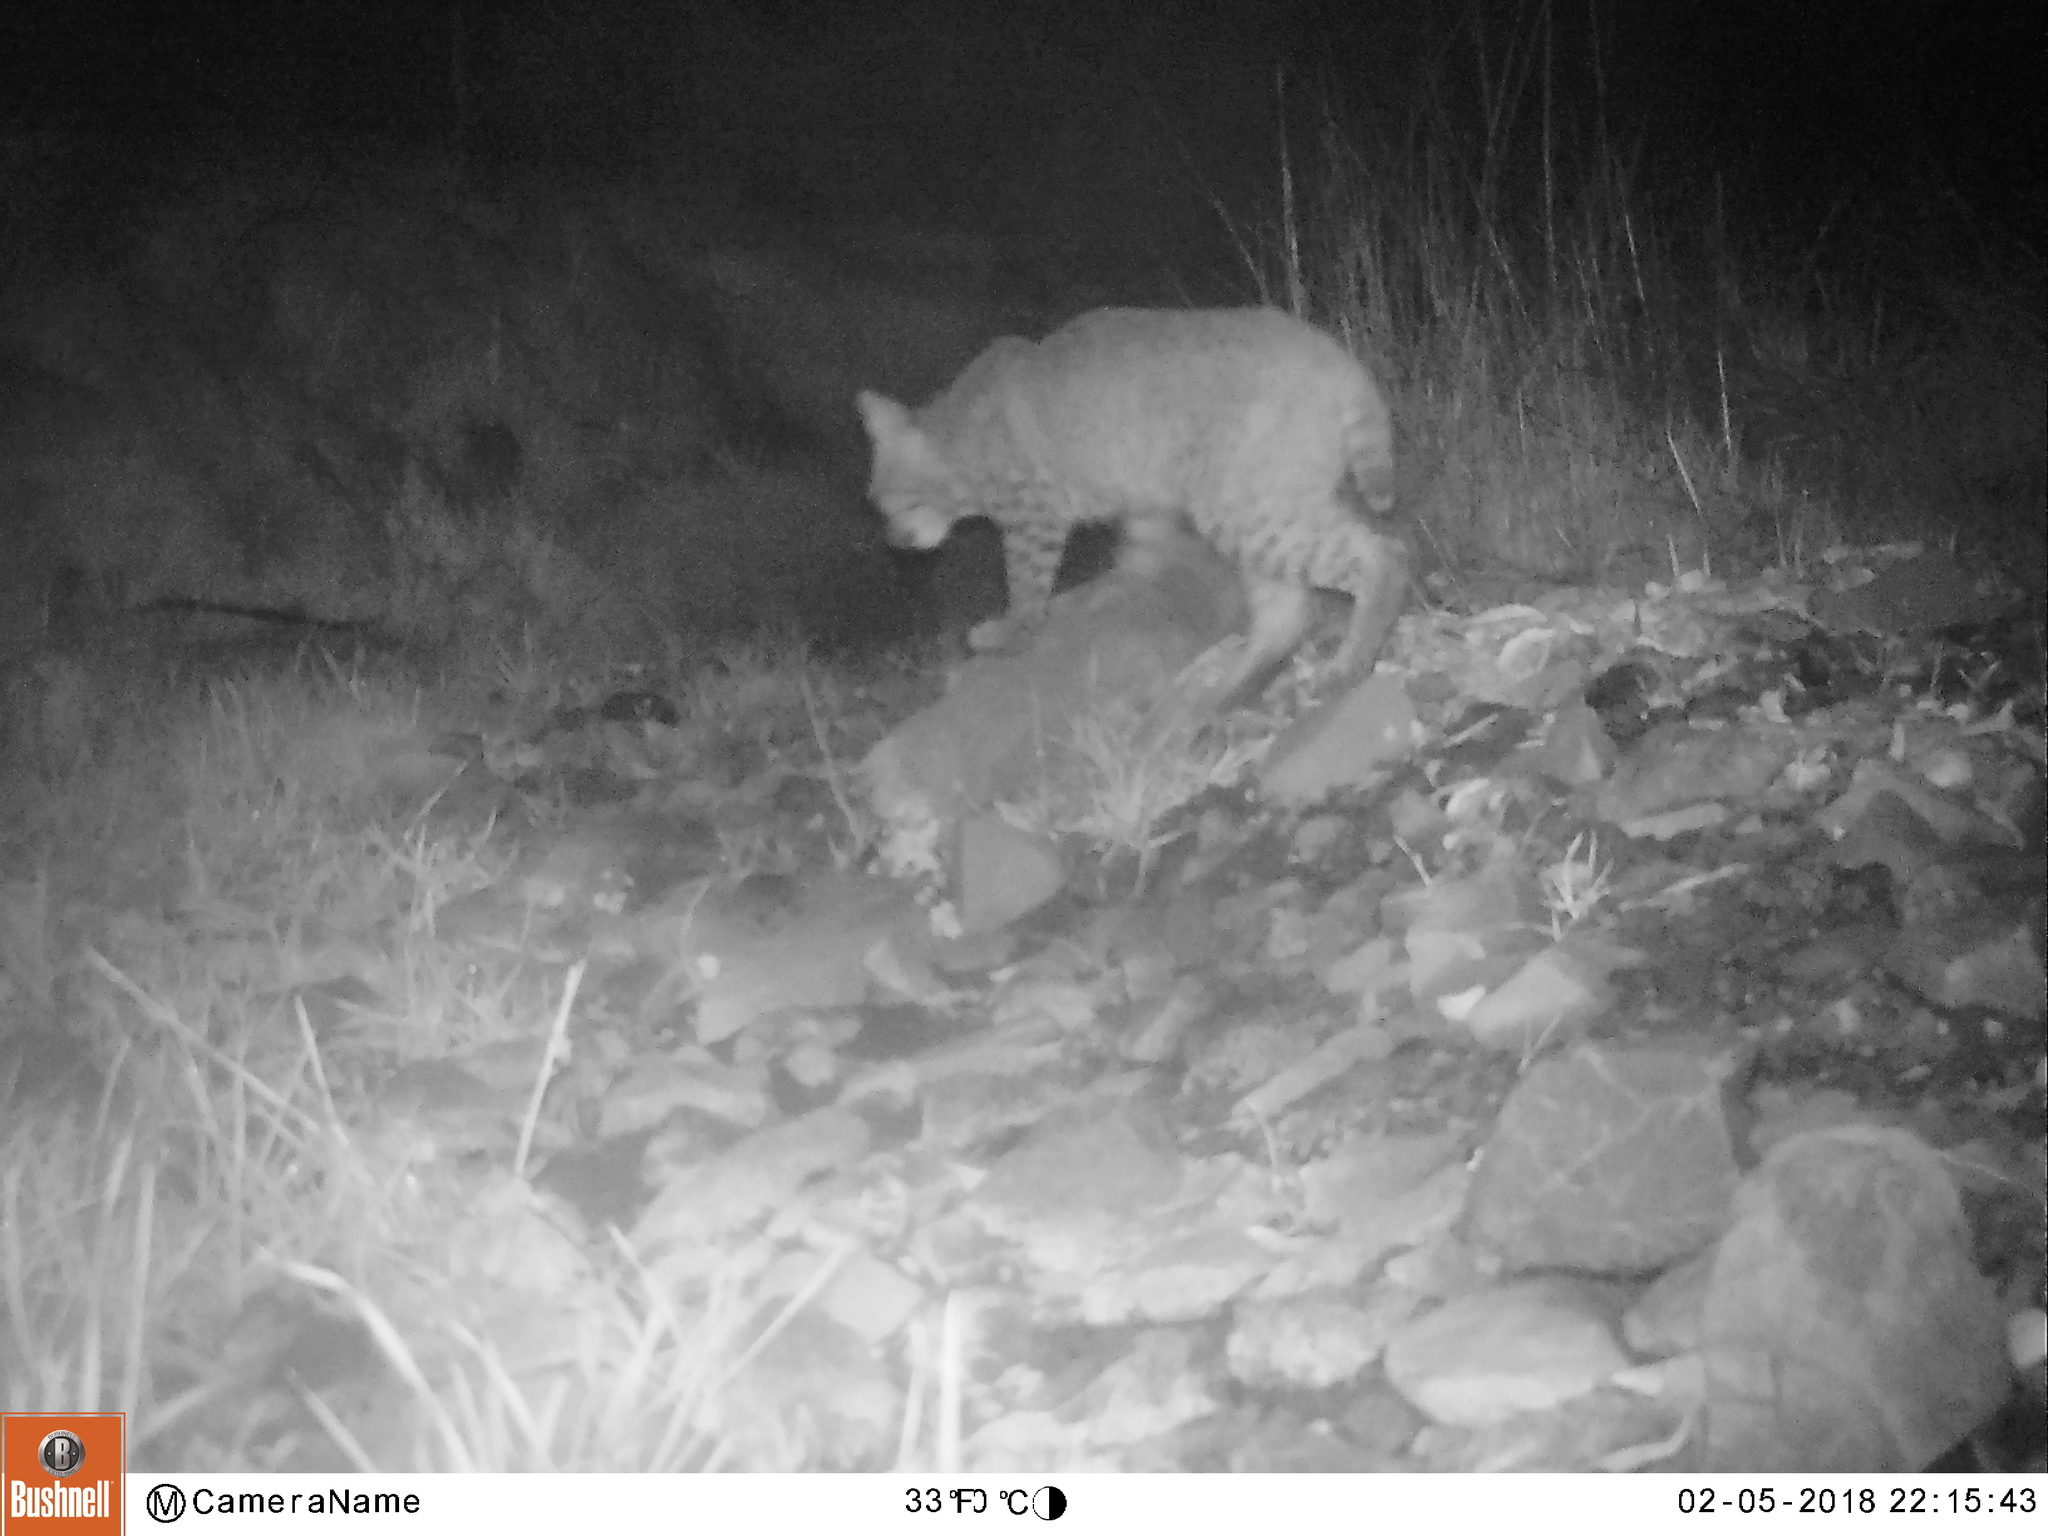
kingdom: Animalia
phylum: Chordata
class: Mammalia
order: Carnivora
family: Felidae
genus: Lynx
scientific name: Lynx rufus
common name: Bobcat
